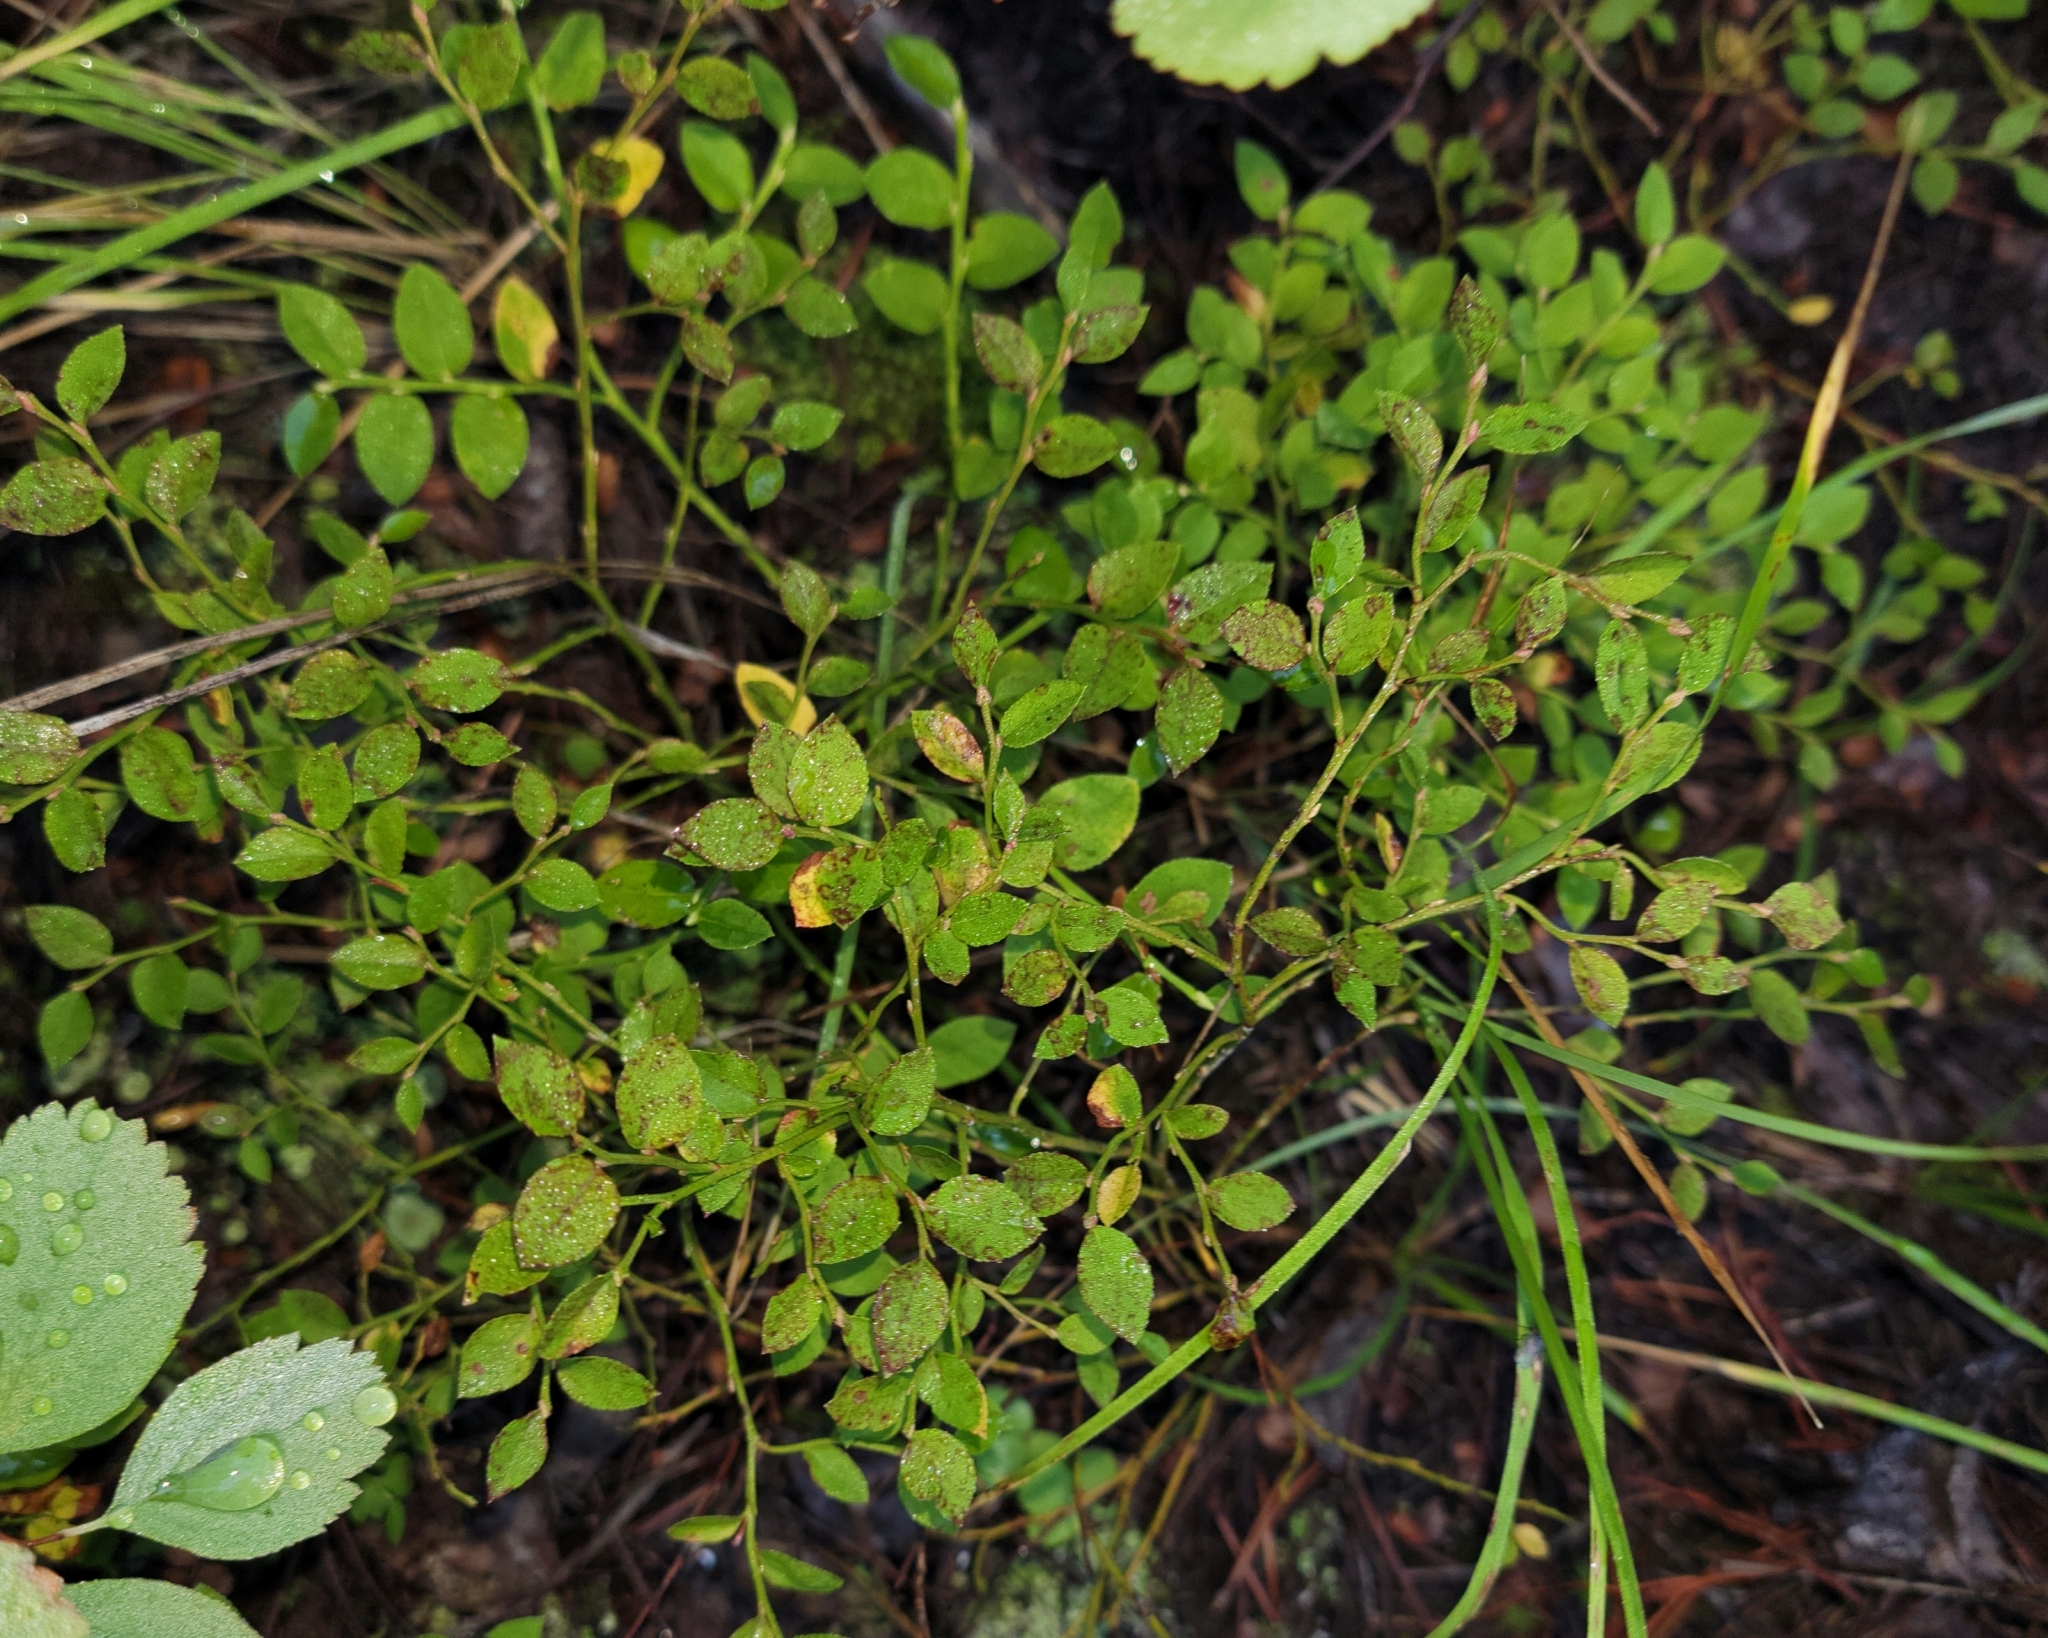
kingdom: Plantae
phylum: Tracheophyta
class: Magnoliopsida
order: Ericales
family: Ericaceae
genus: Vaccinium
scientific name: Vaccinium scoparium
